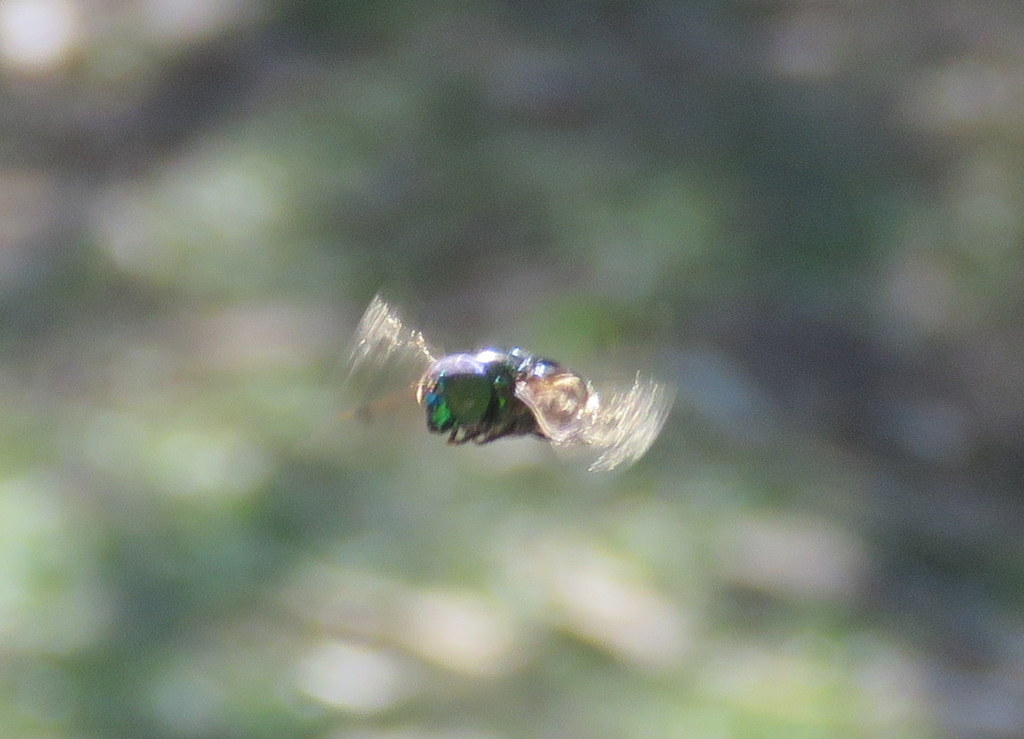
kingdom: Animalia
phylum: Arthropoda
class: Insecta
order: Diptera
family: Syrphidae
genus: Ornidia
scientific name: Ornidia obesa
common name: Syrphid fly
